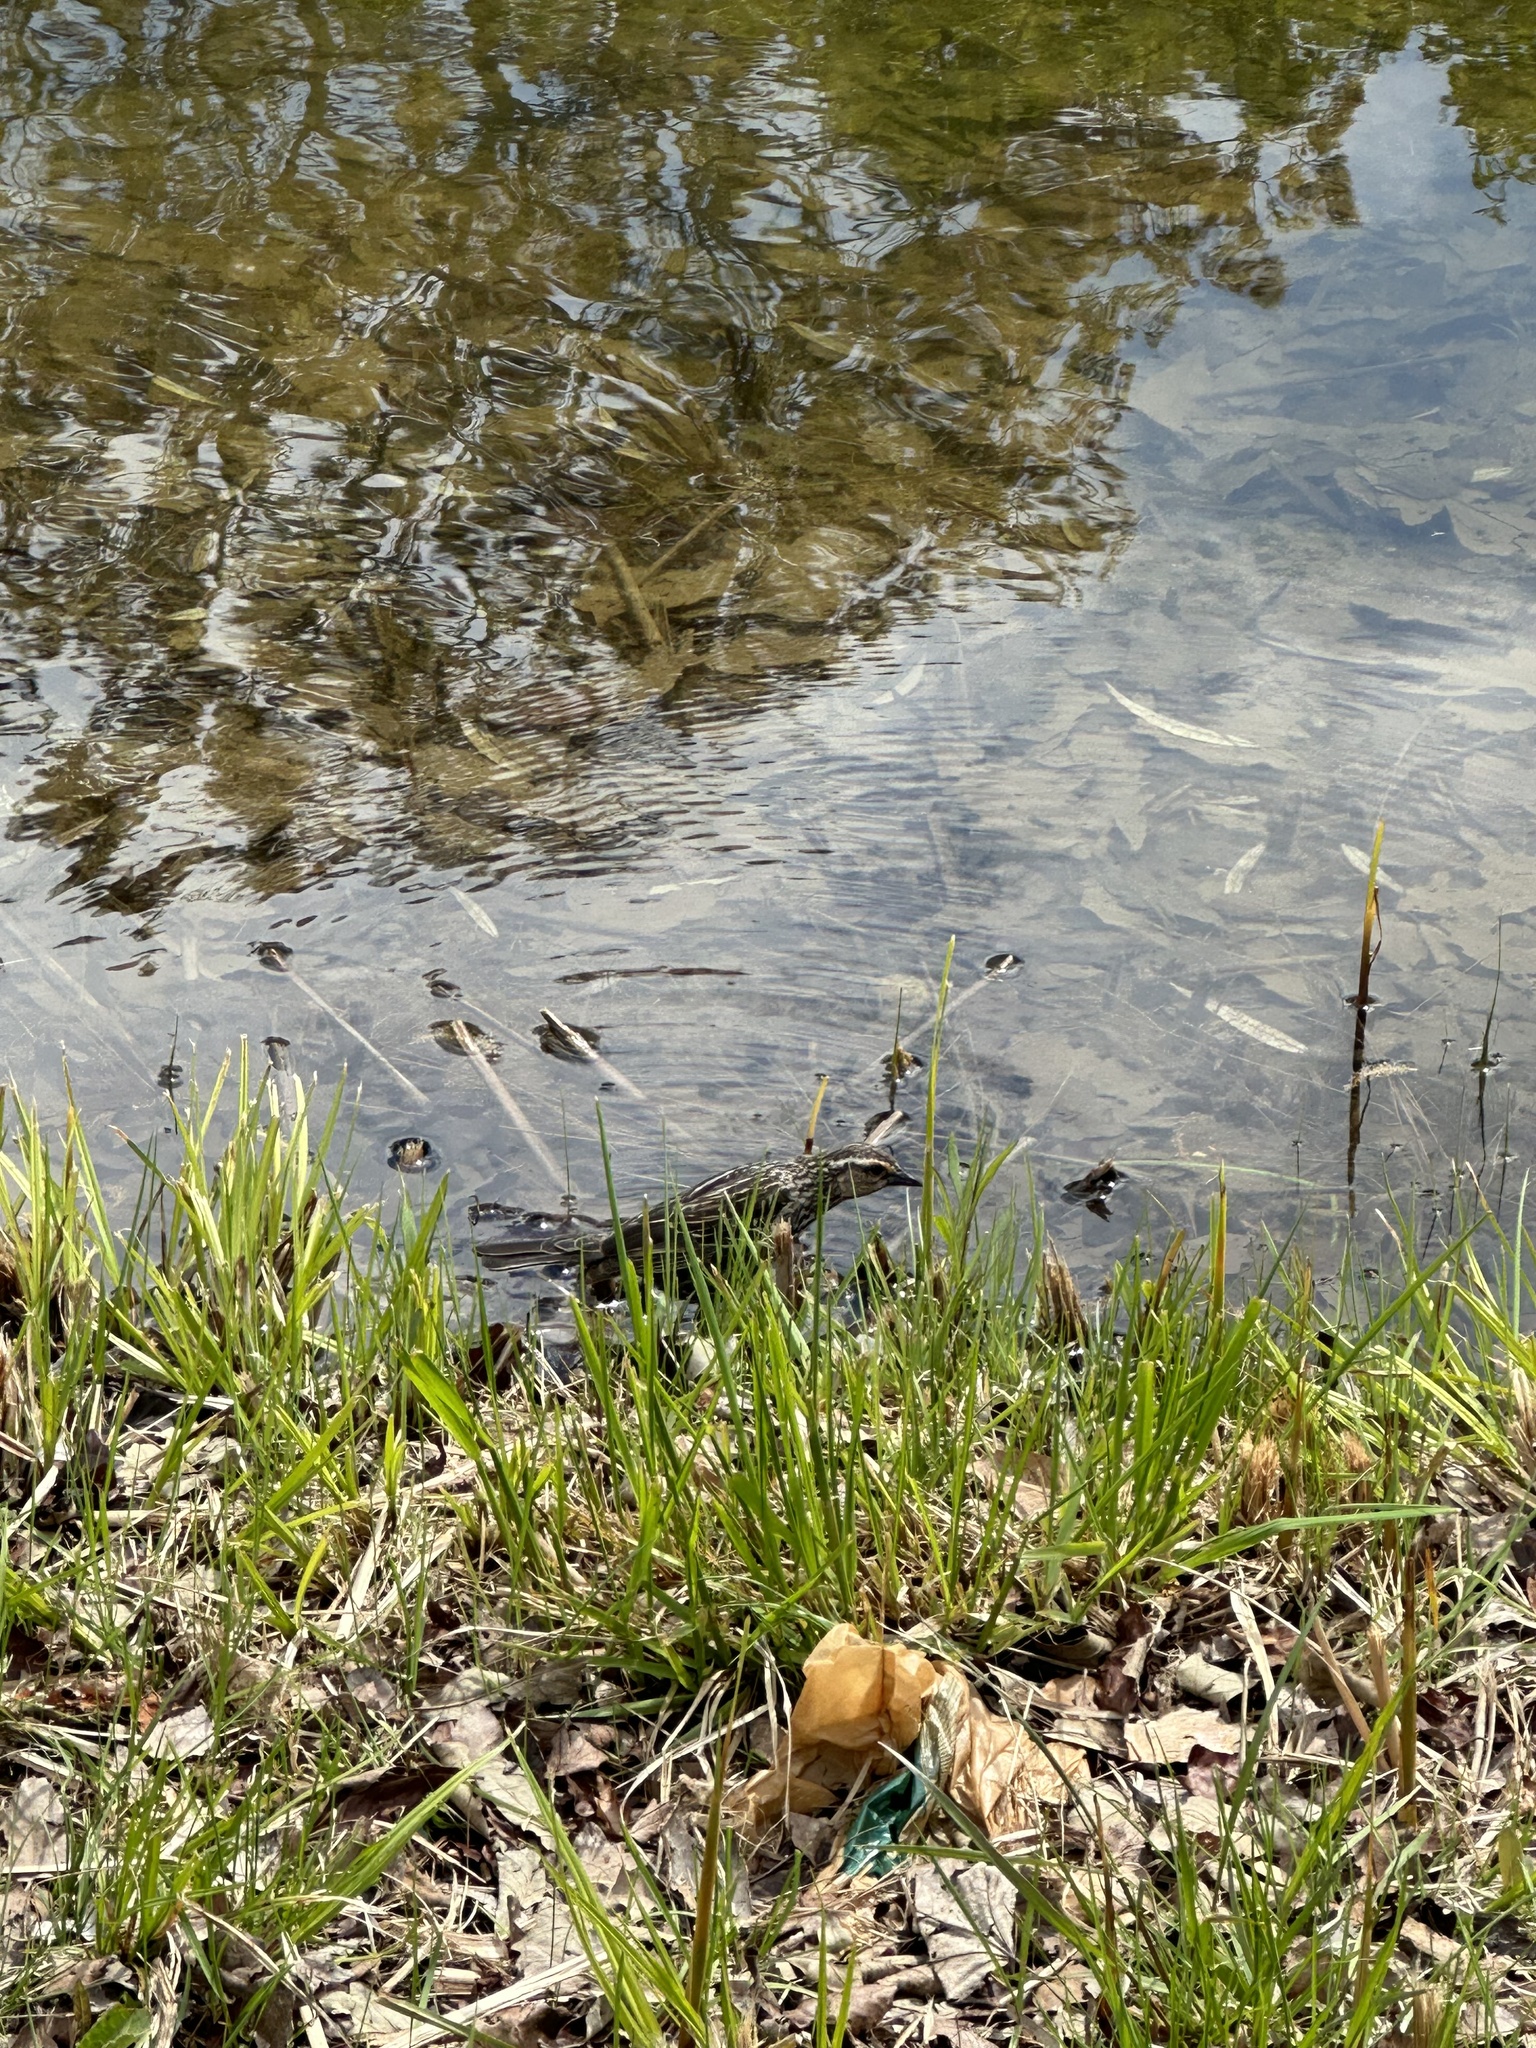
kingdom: Animalia
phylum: Chordata
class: Aves
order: Passeriformes
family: Icteridae
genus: Agelaius
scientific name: Agelaius phoeniceus
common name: Red-winged blackbird
